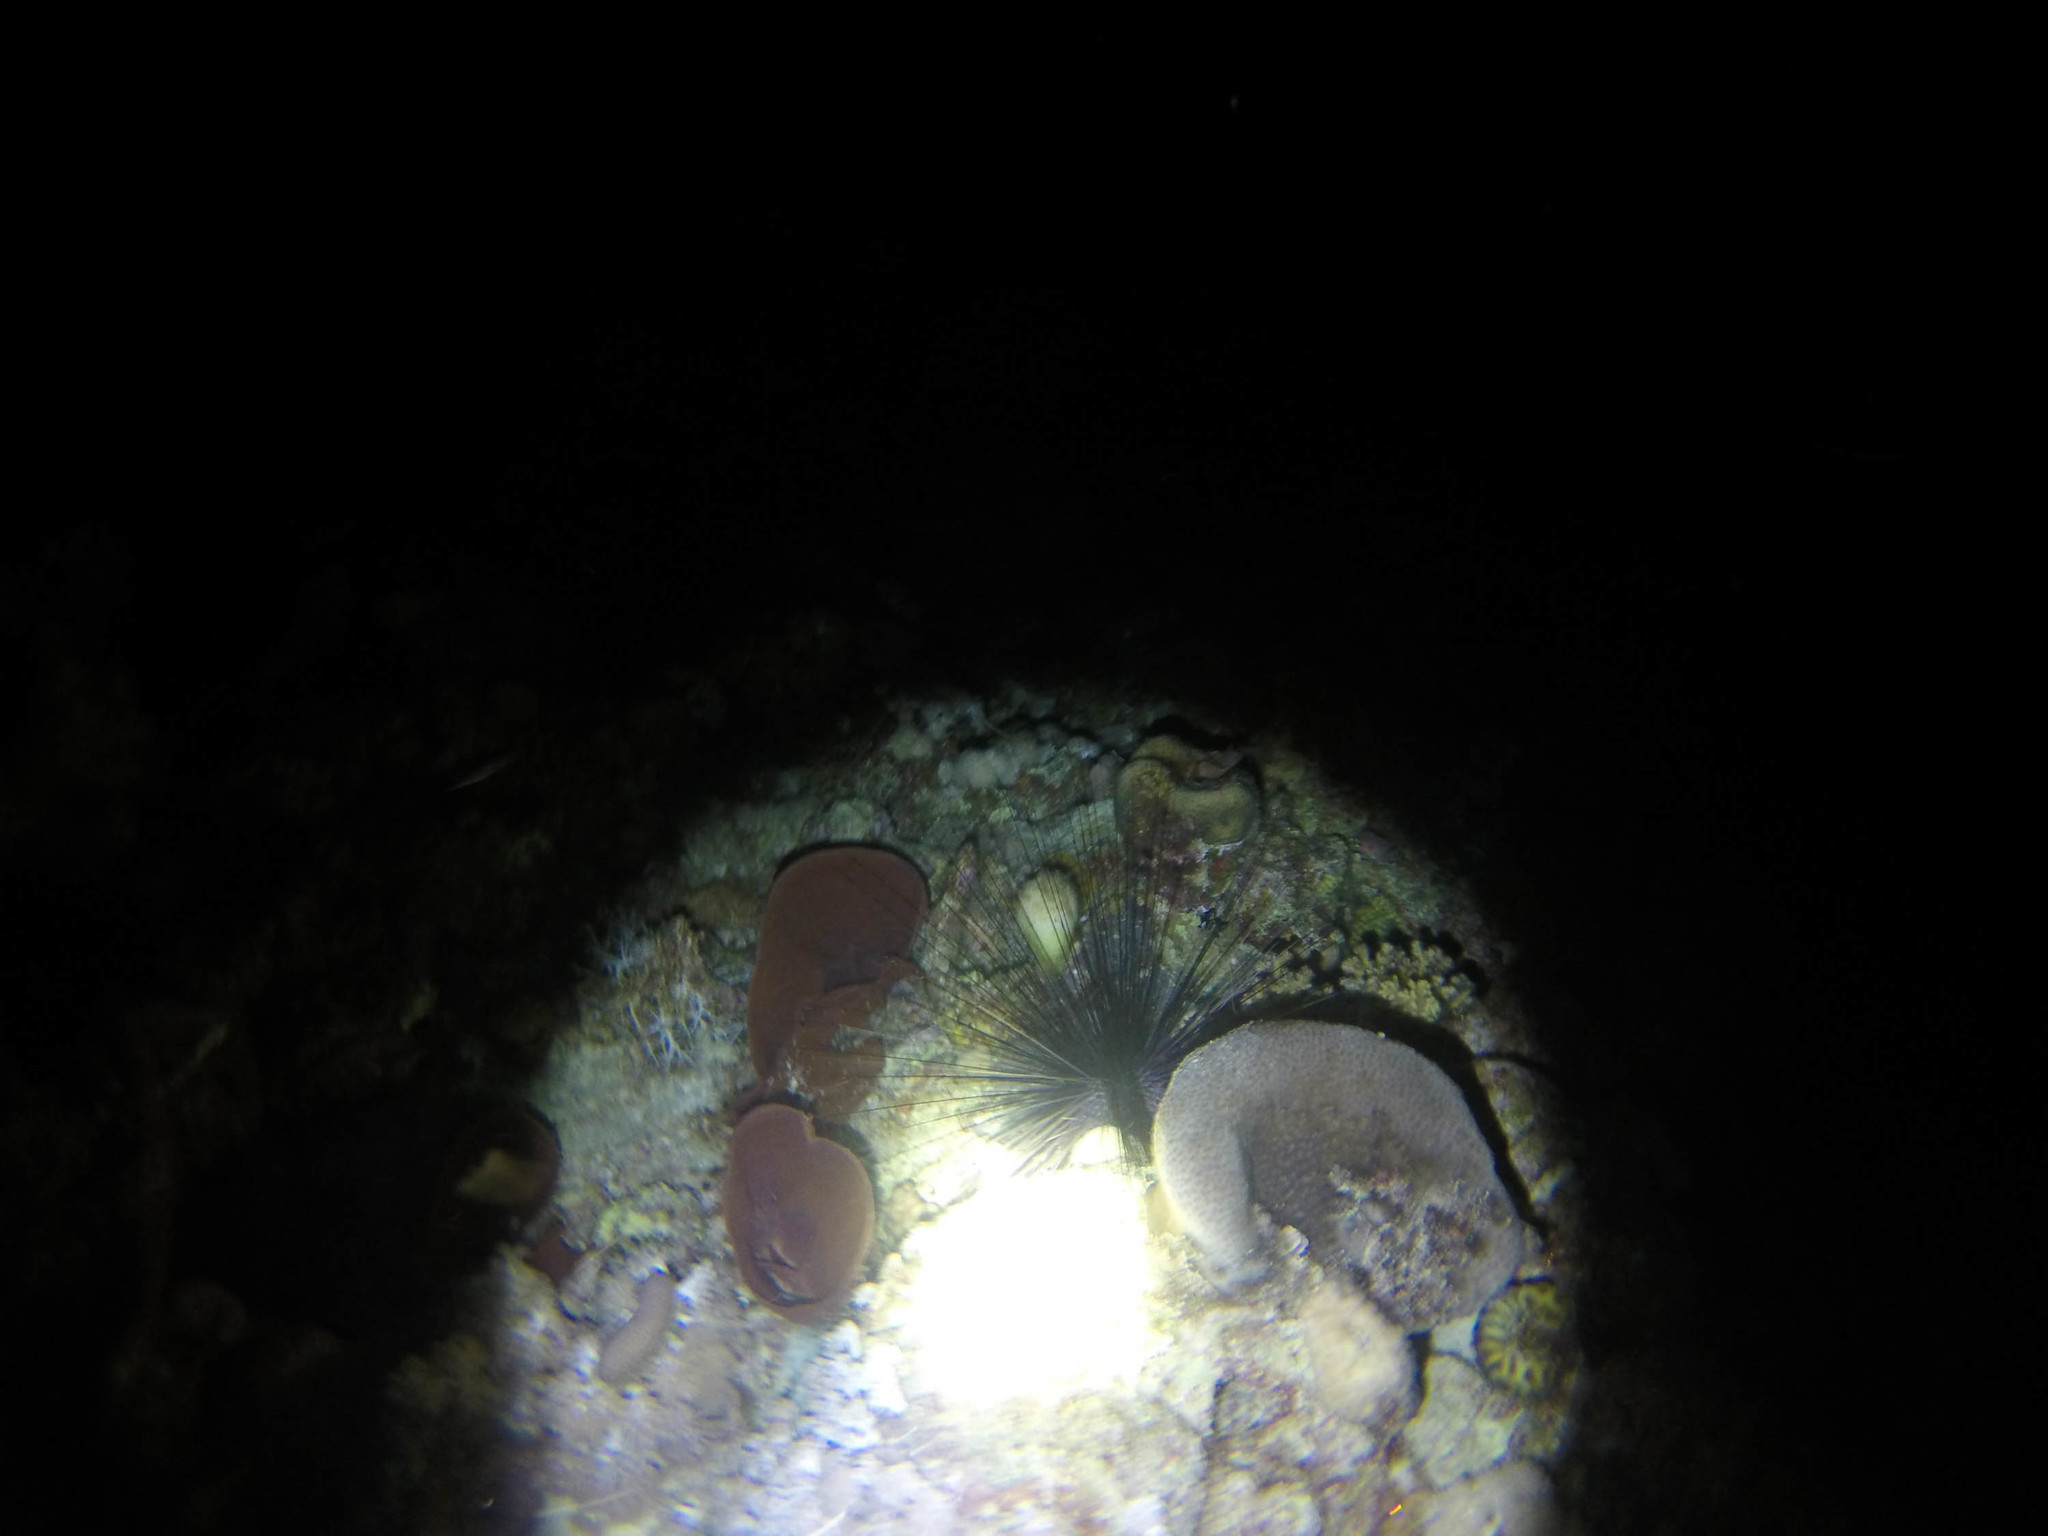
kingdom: Animalia
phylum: Echinodermata
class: Echinoidea
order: Diadematoida
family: Diadematidae
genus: Diadema
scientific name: Diadema
